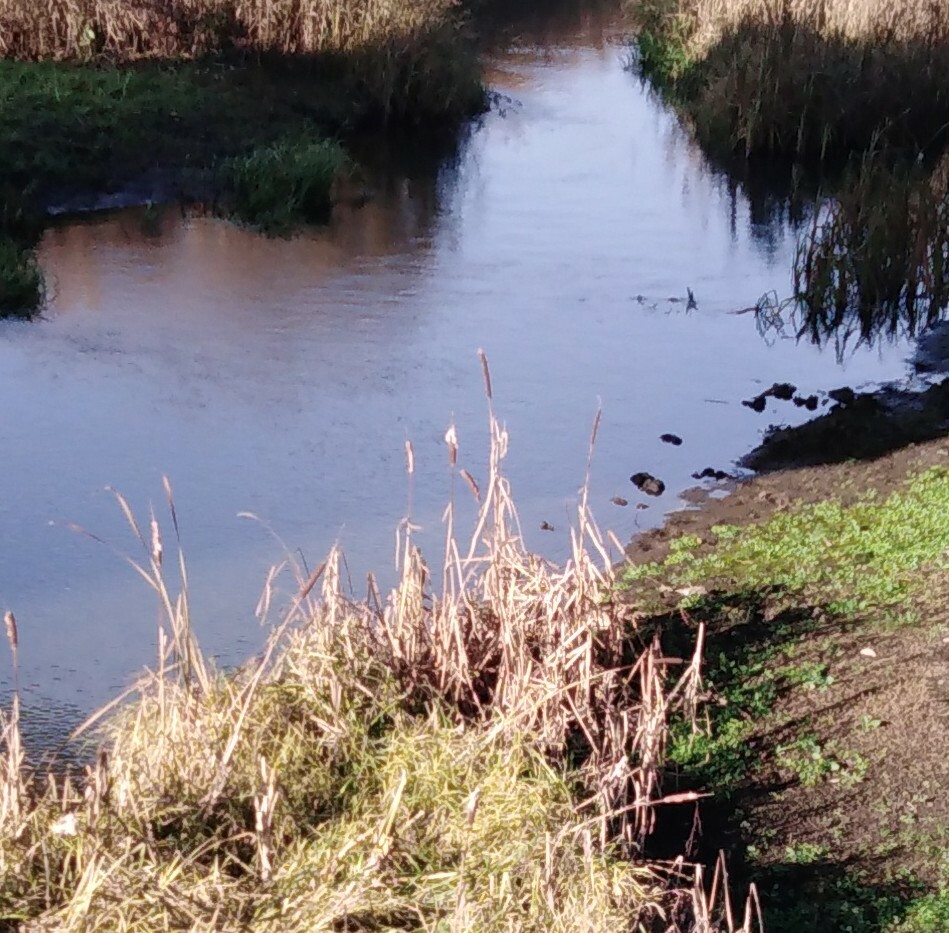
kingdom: Plantae
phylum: Tracheophyta
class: Liliopsida
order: Poales
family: Typhaceae
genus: Typha
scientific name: Typha latifolia
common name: Broadleaf cattail
